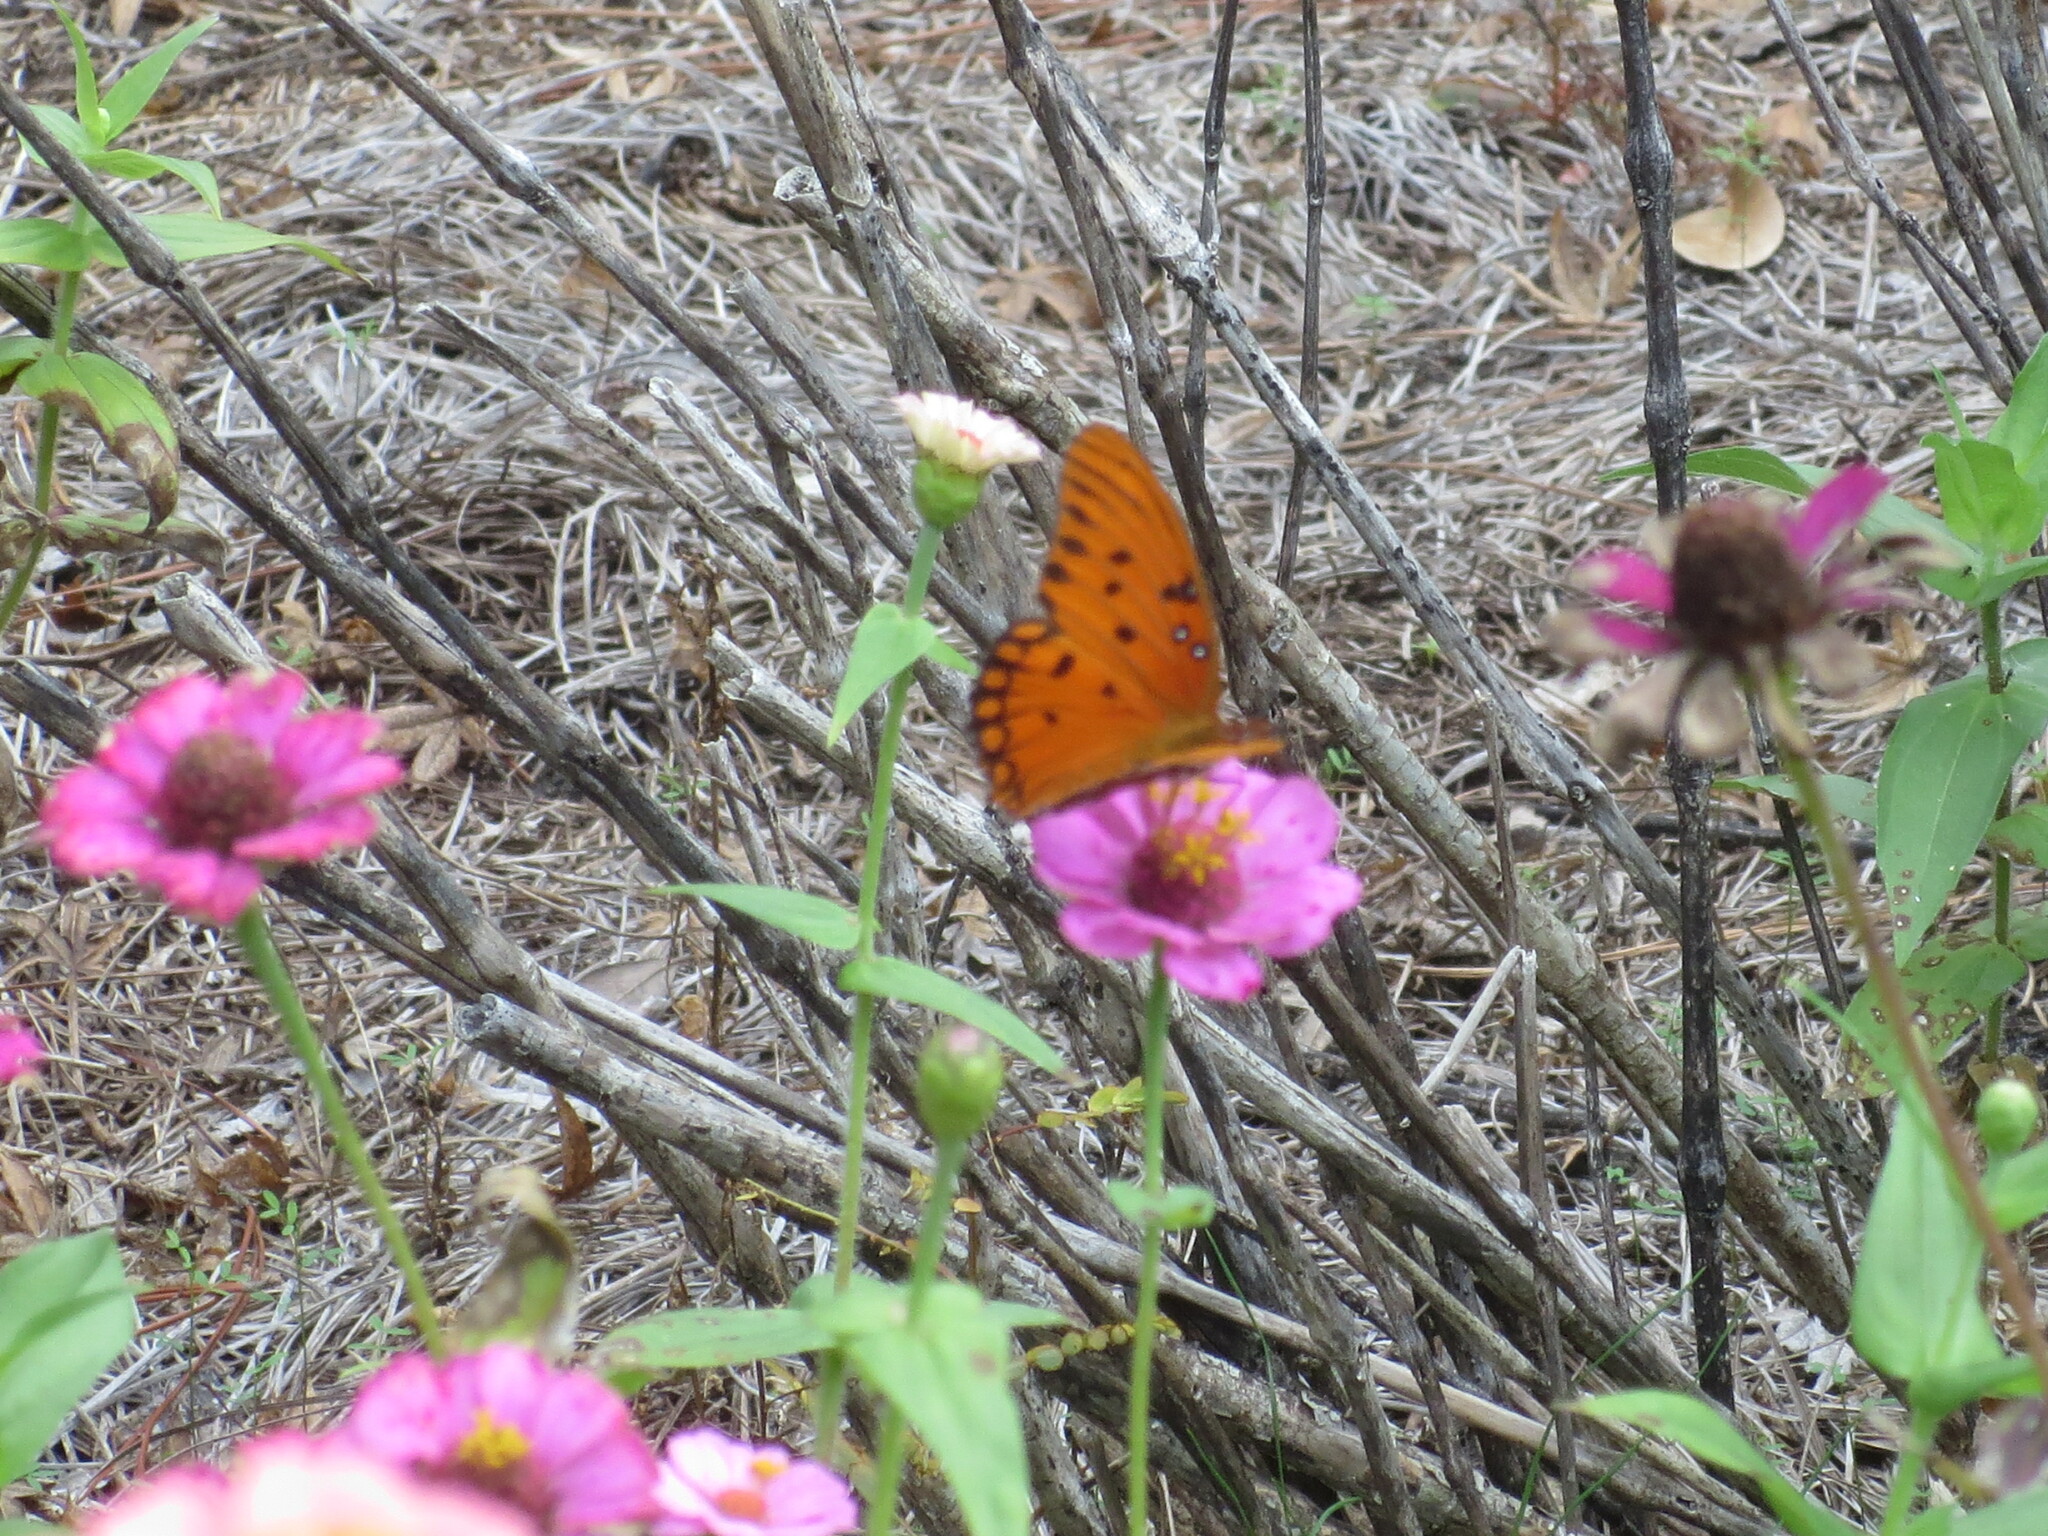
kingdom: Animalia
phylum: Arthropoda
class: Insecta
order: Lepidoptera
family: Nymphalidae
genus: Dione
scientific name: Dione vanillae
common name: Gulf fritillary
